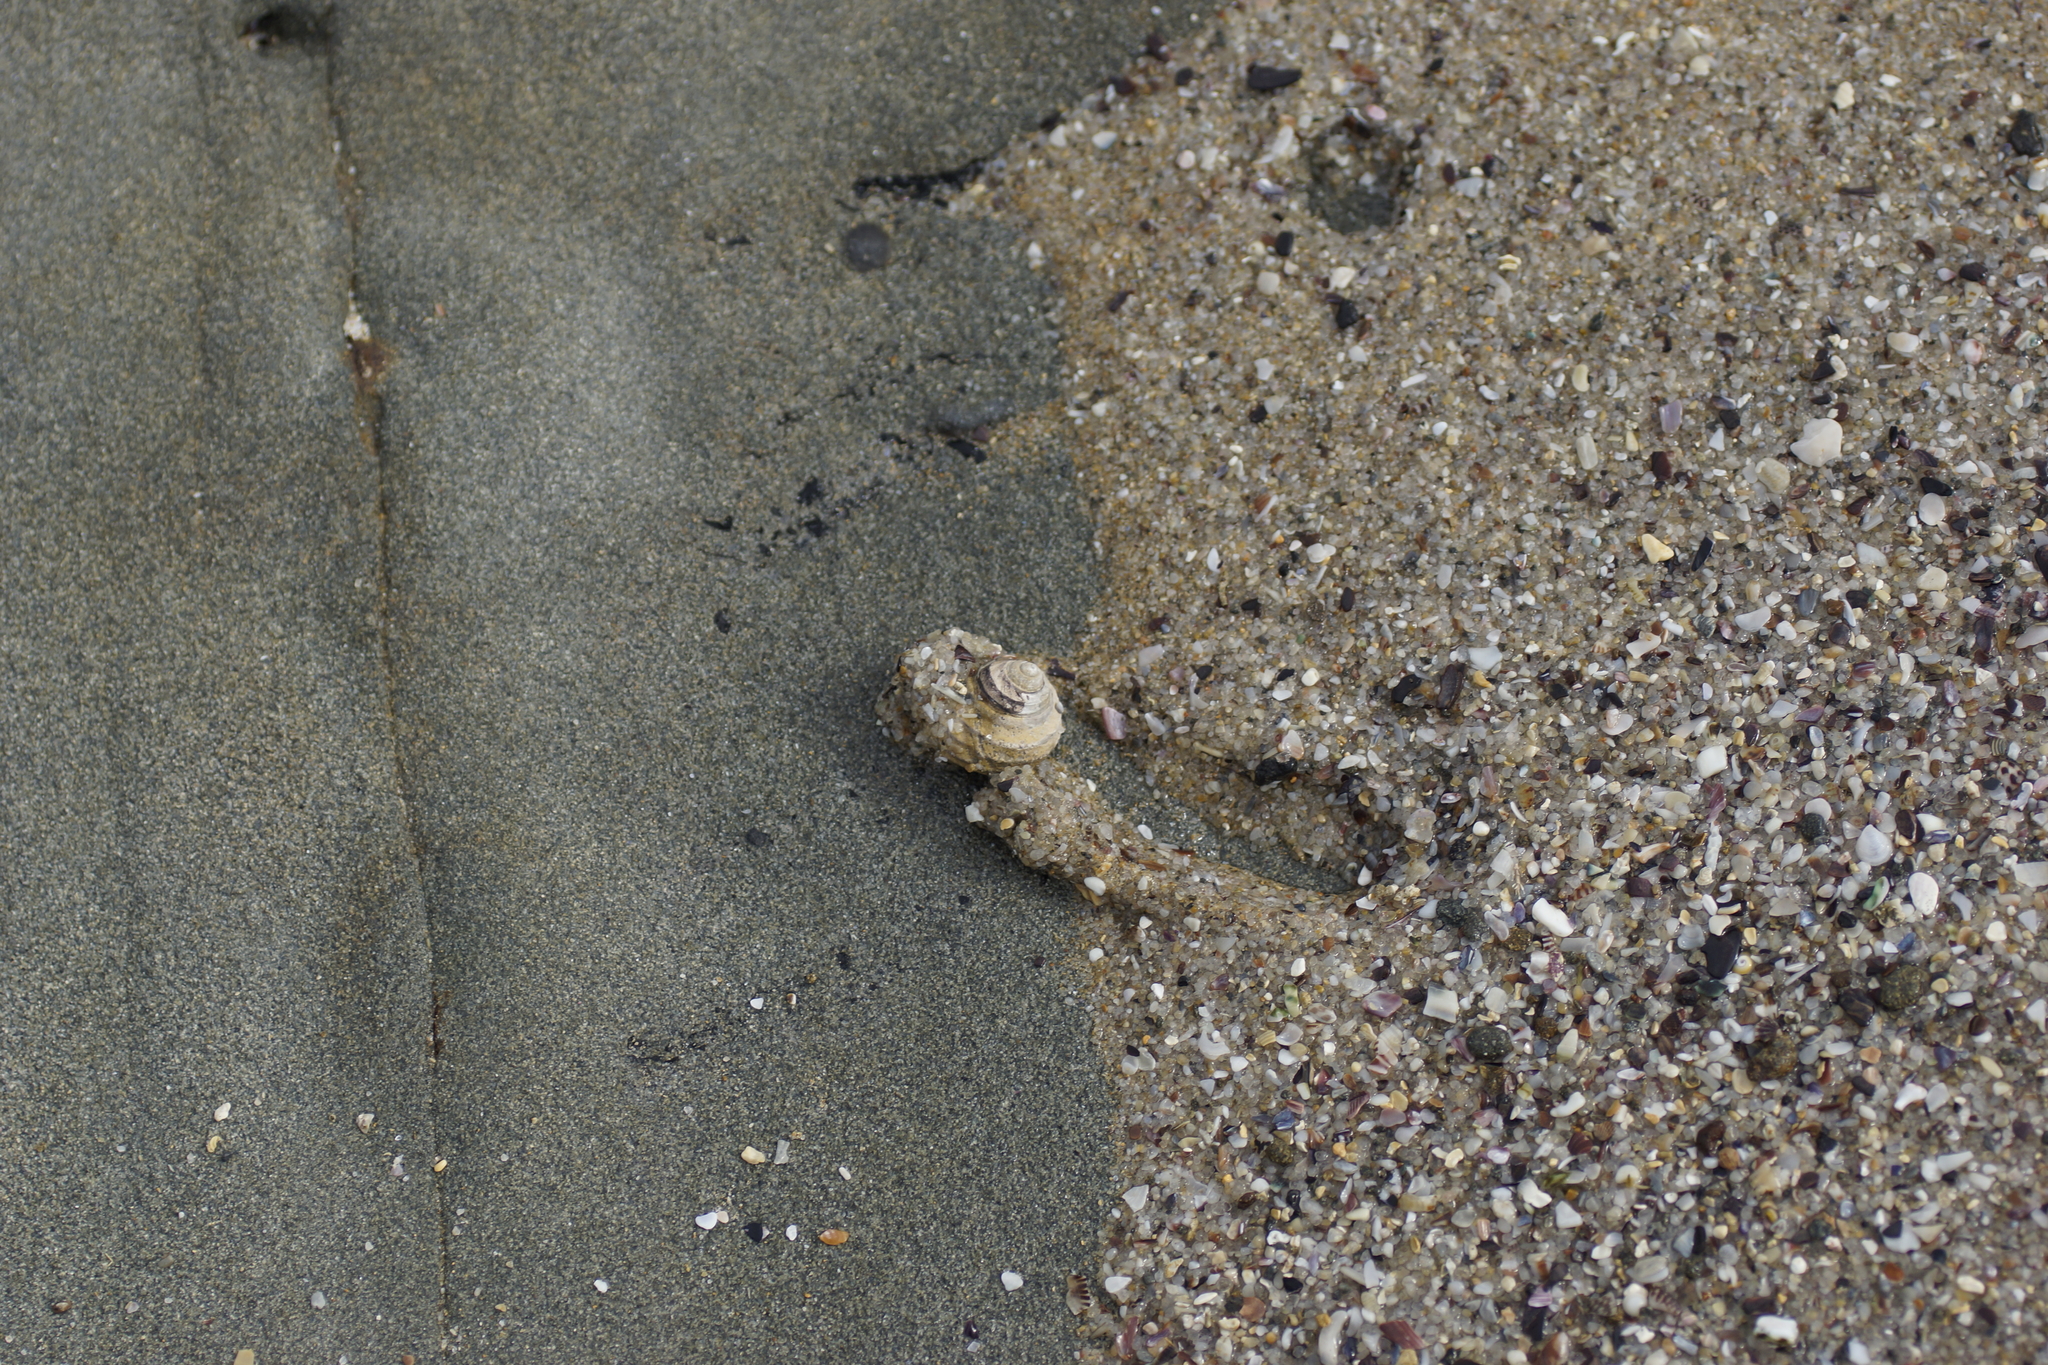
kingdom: Animalia
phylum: Mollusca
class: Gastropoda
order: Trochida
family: Trochidae
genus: Austrocochlea
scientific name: Austrocochlea constricta
